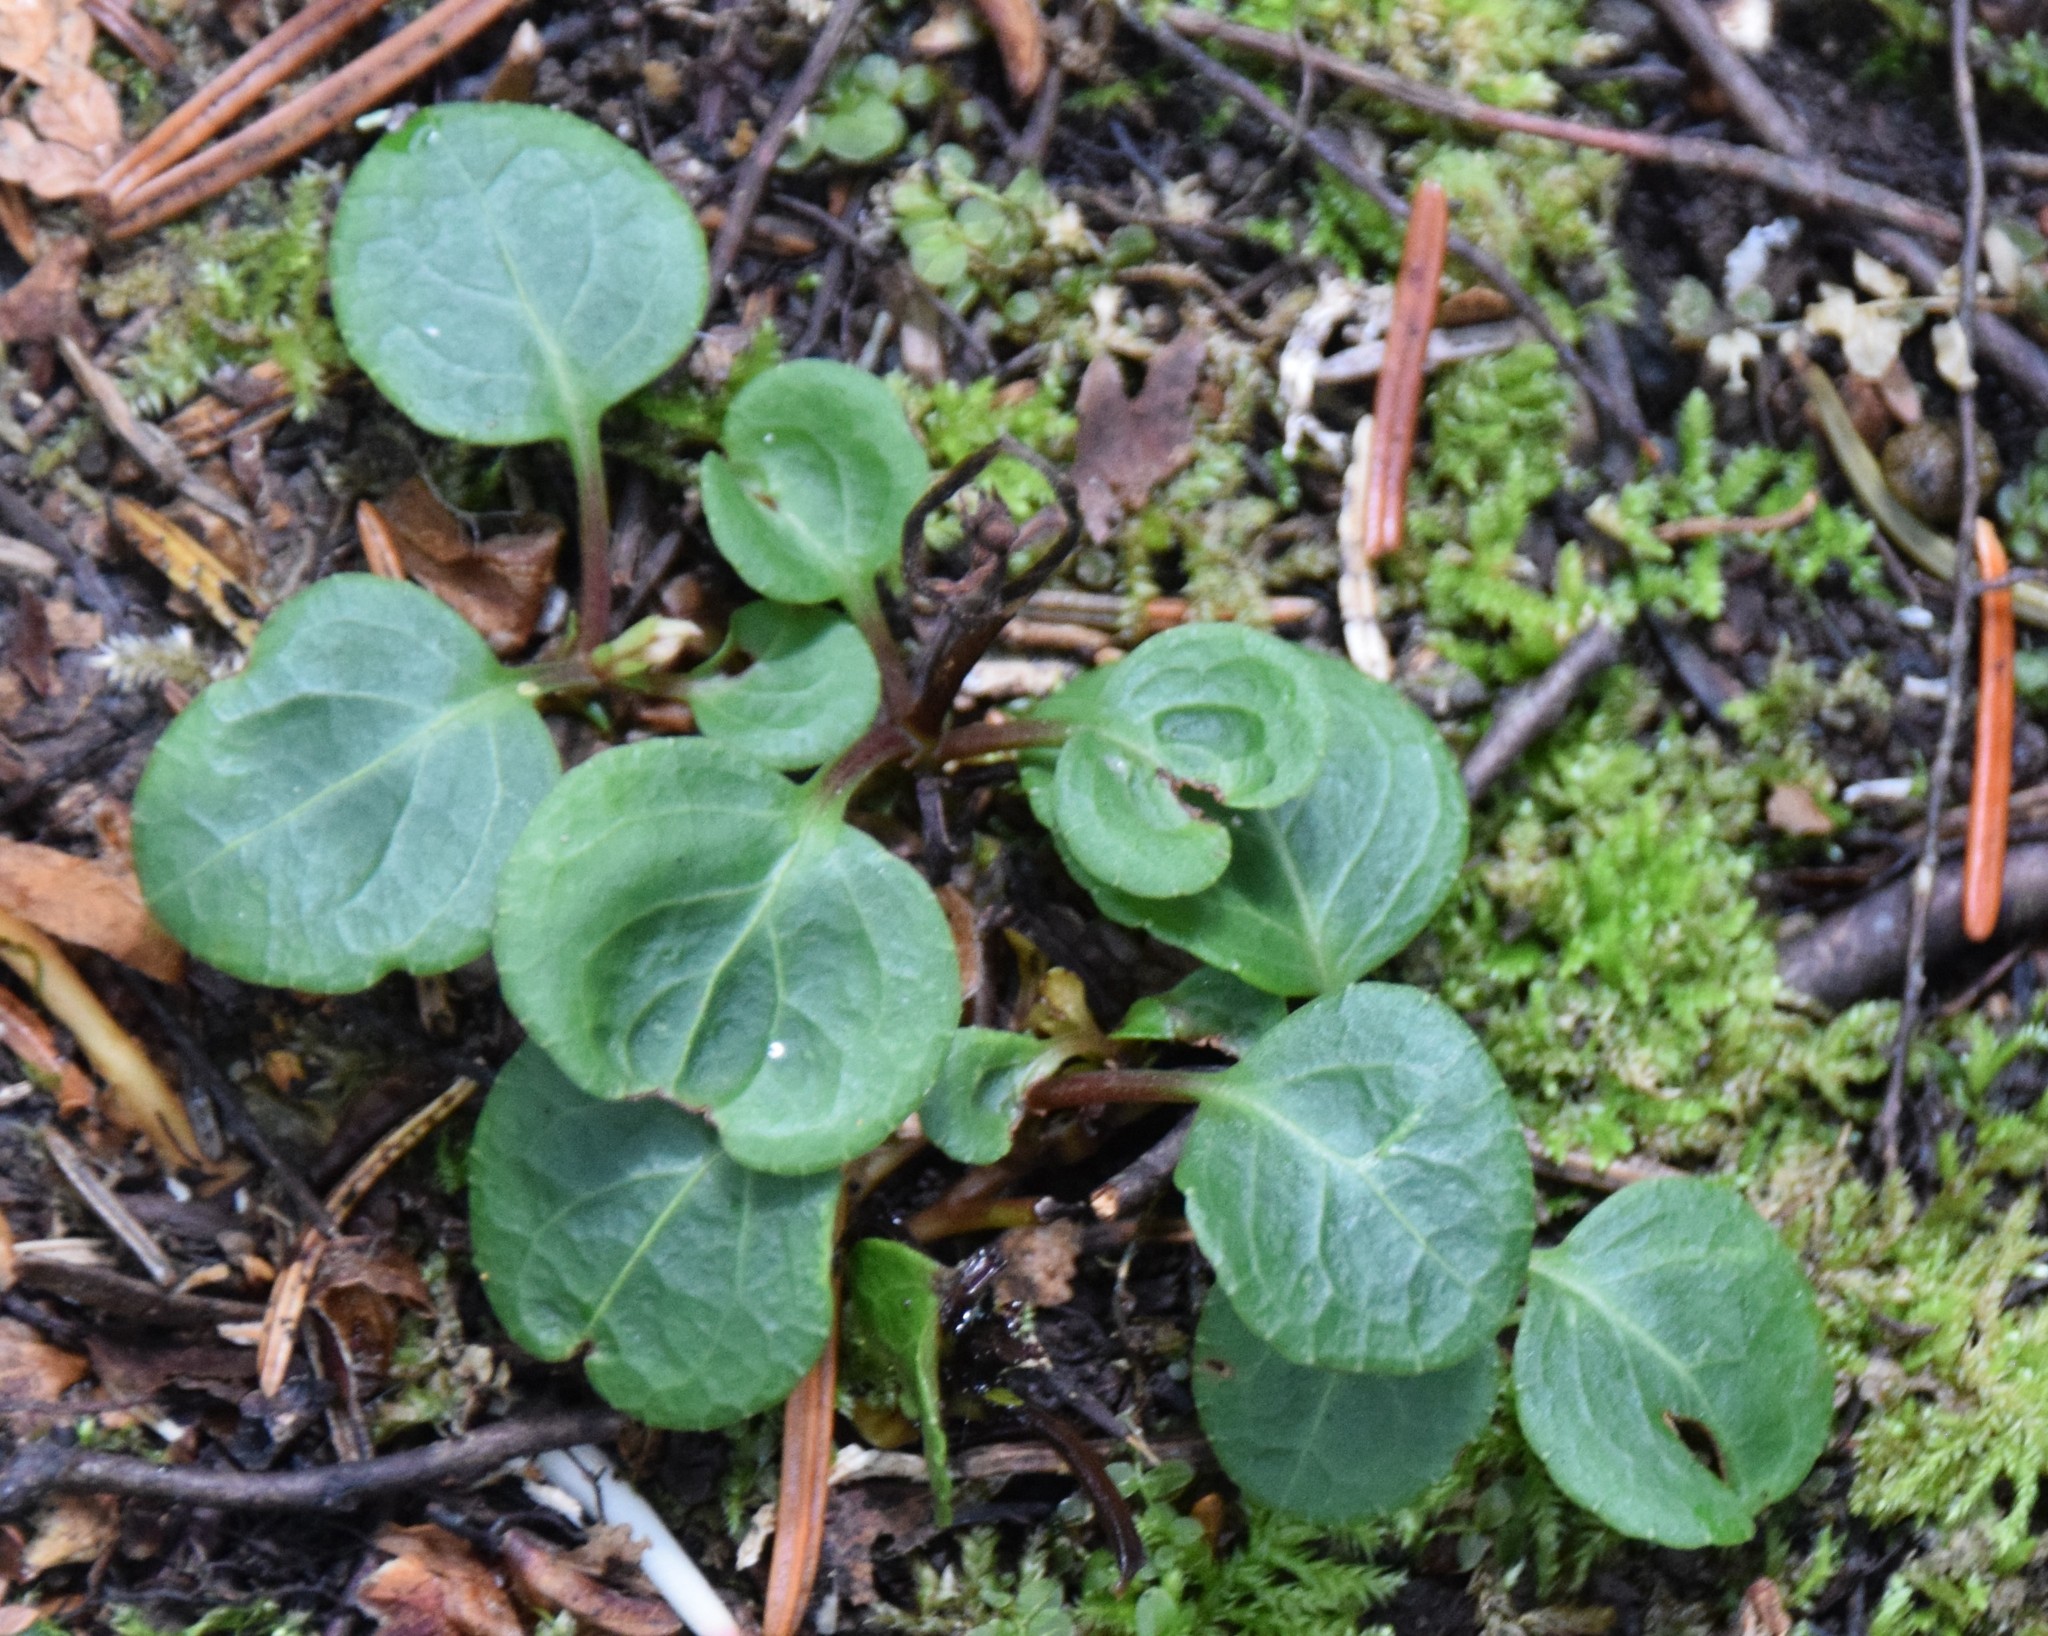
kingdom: Plantae
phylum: Tracheophyta
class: Magnoliopsida
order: Ericales
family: Ericaceae
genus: Pyrola
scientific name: Pyrola chlorantha
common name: Green wintergreen
